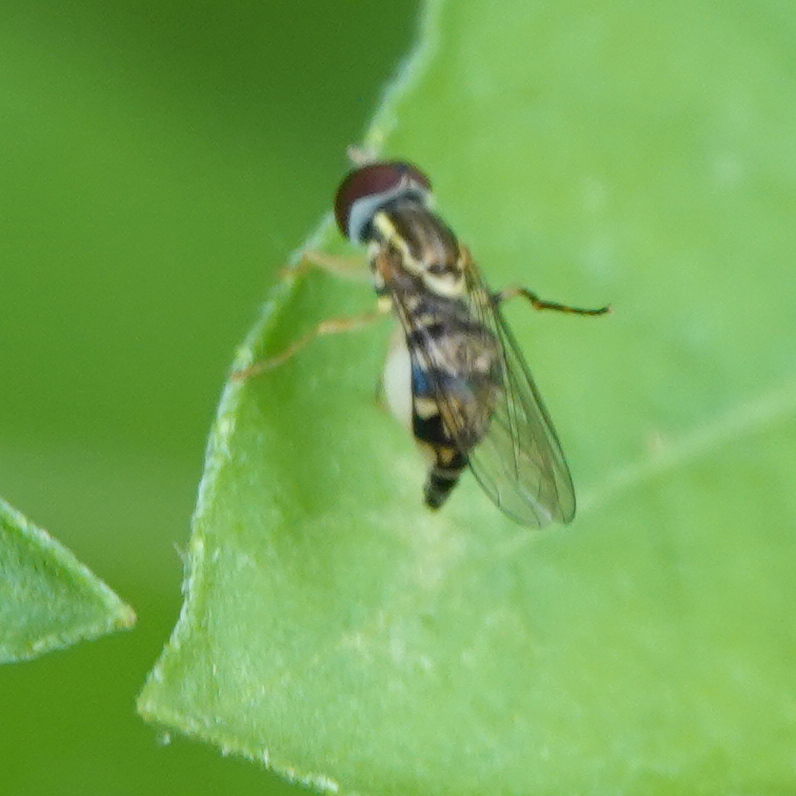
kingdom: Animalia
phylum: Arthropoda
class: Insecta
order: Diptera
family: Syrphidae
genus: Toxomerus
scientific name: Toxomerus geminatus
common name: Eastern calligrapher
